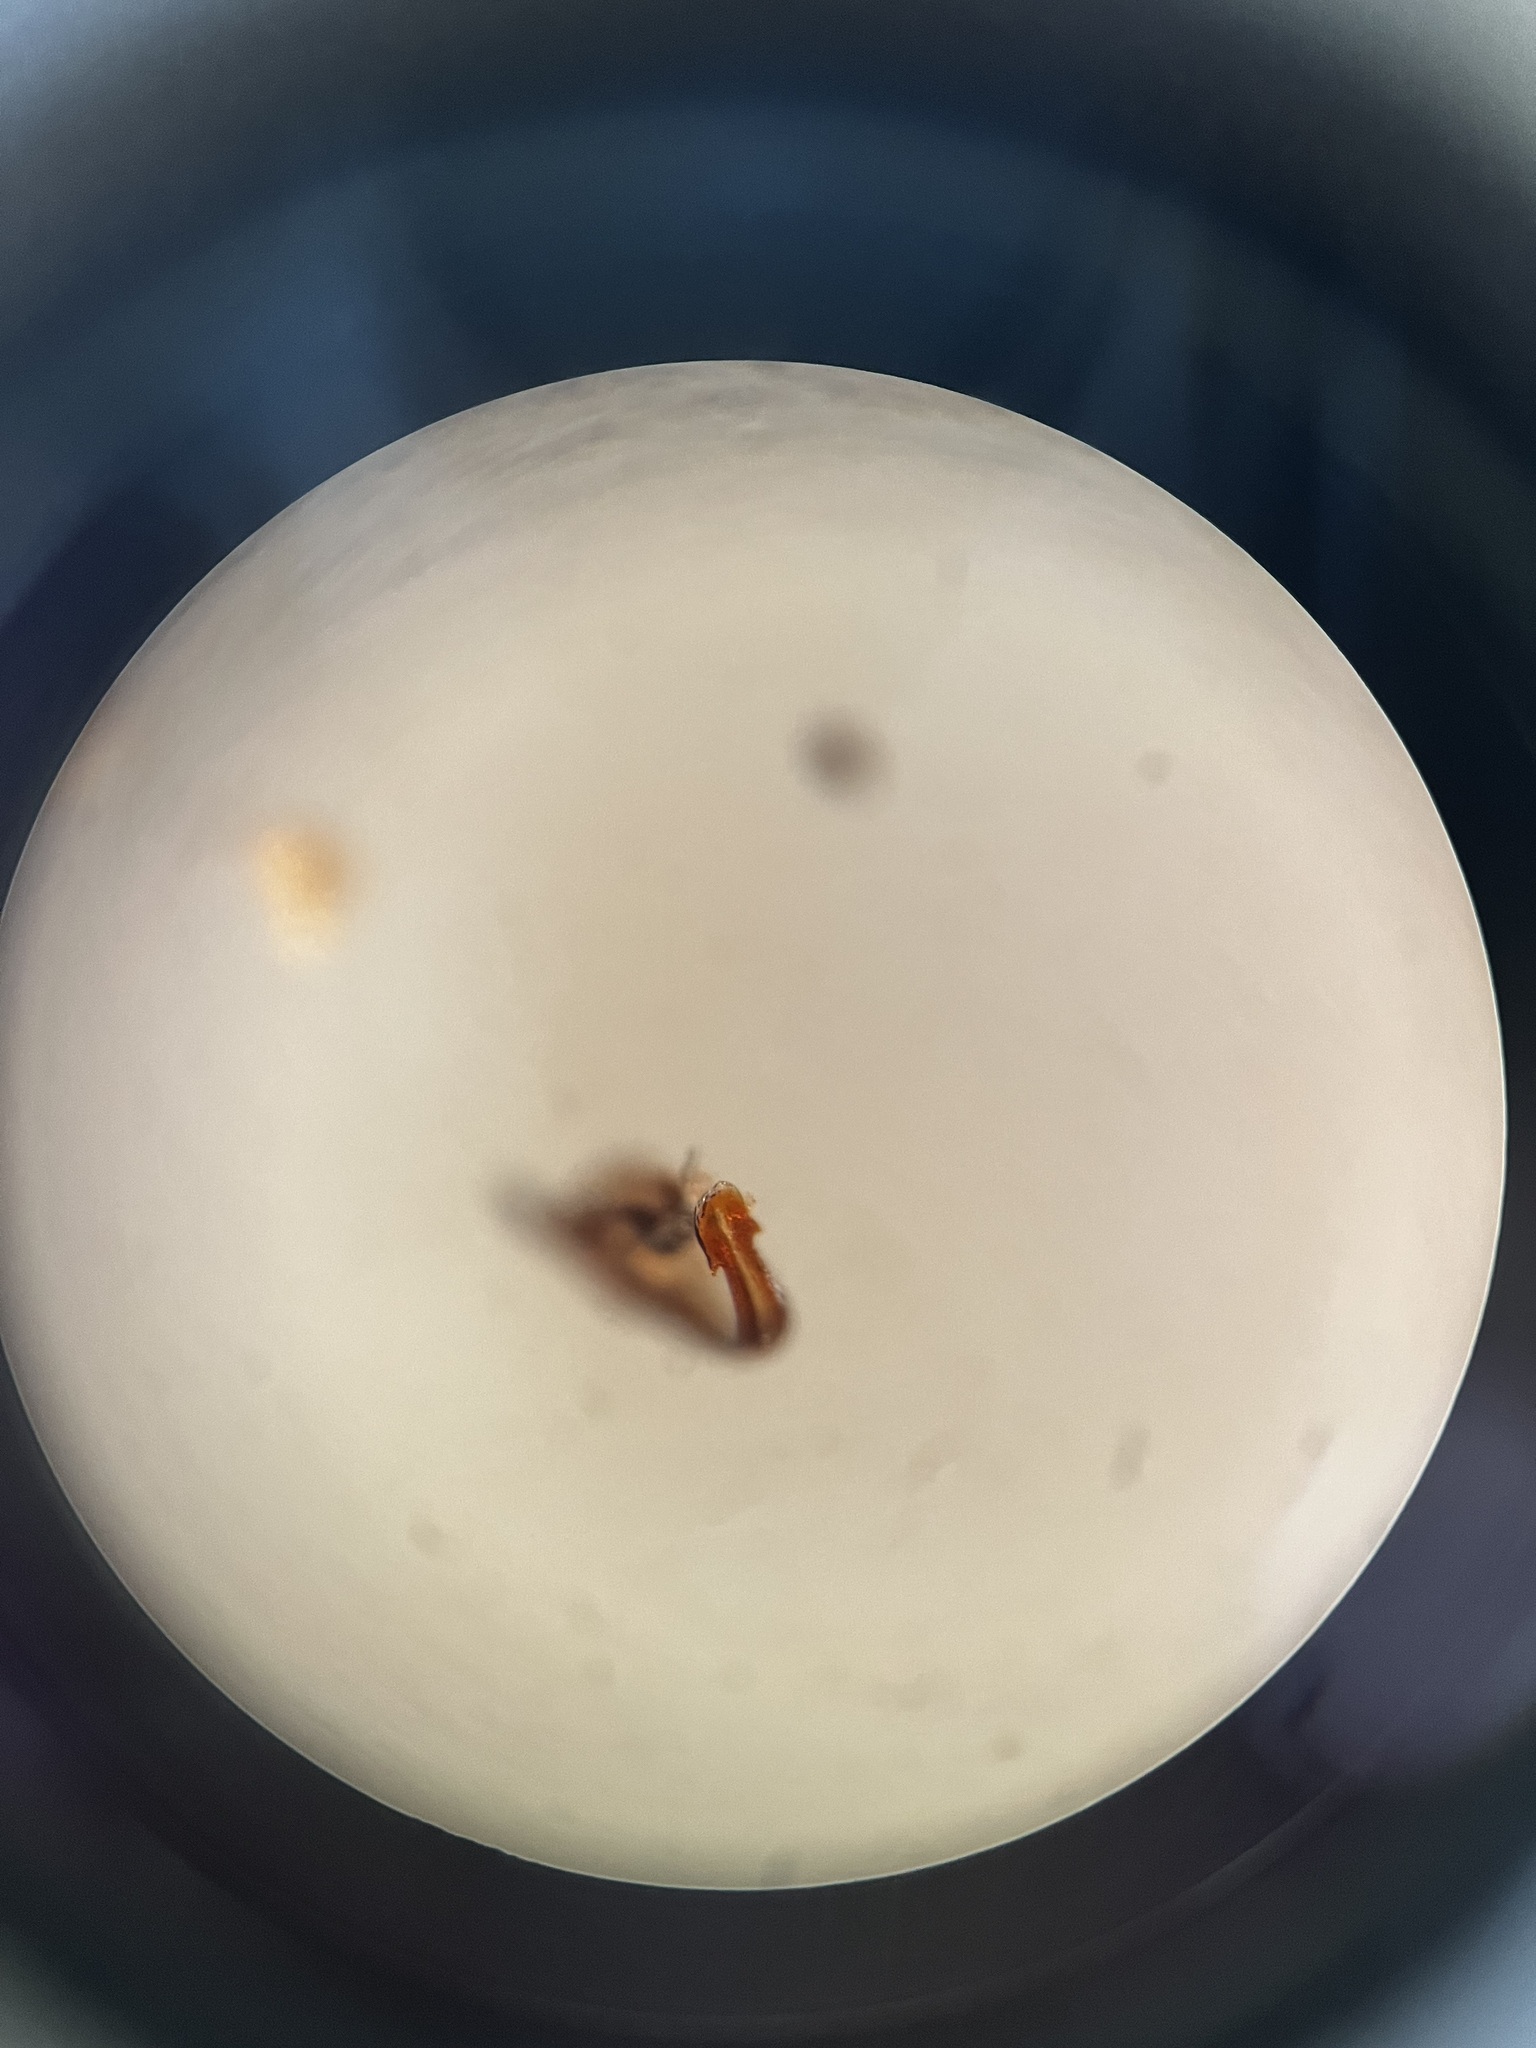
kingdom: Animalia
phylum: Arthropoda
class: Insecta
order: Hemiptera
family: Cicadellidae
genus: Streptanus
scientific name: Streptanus sordidus
